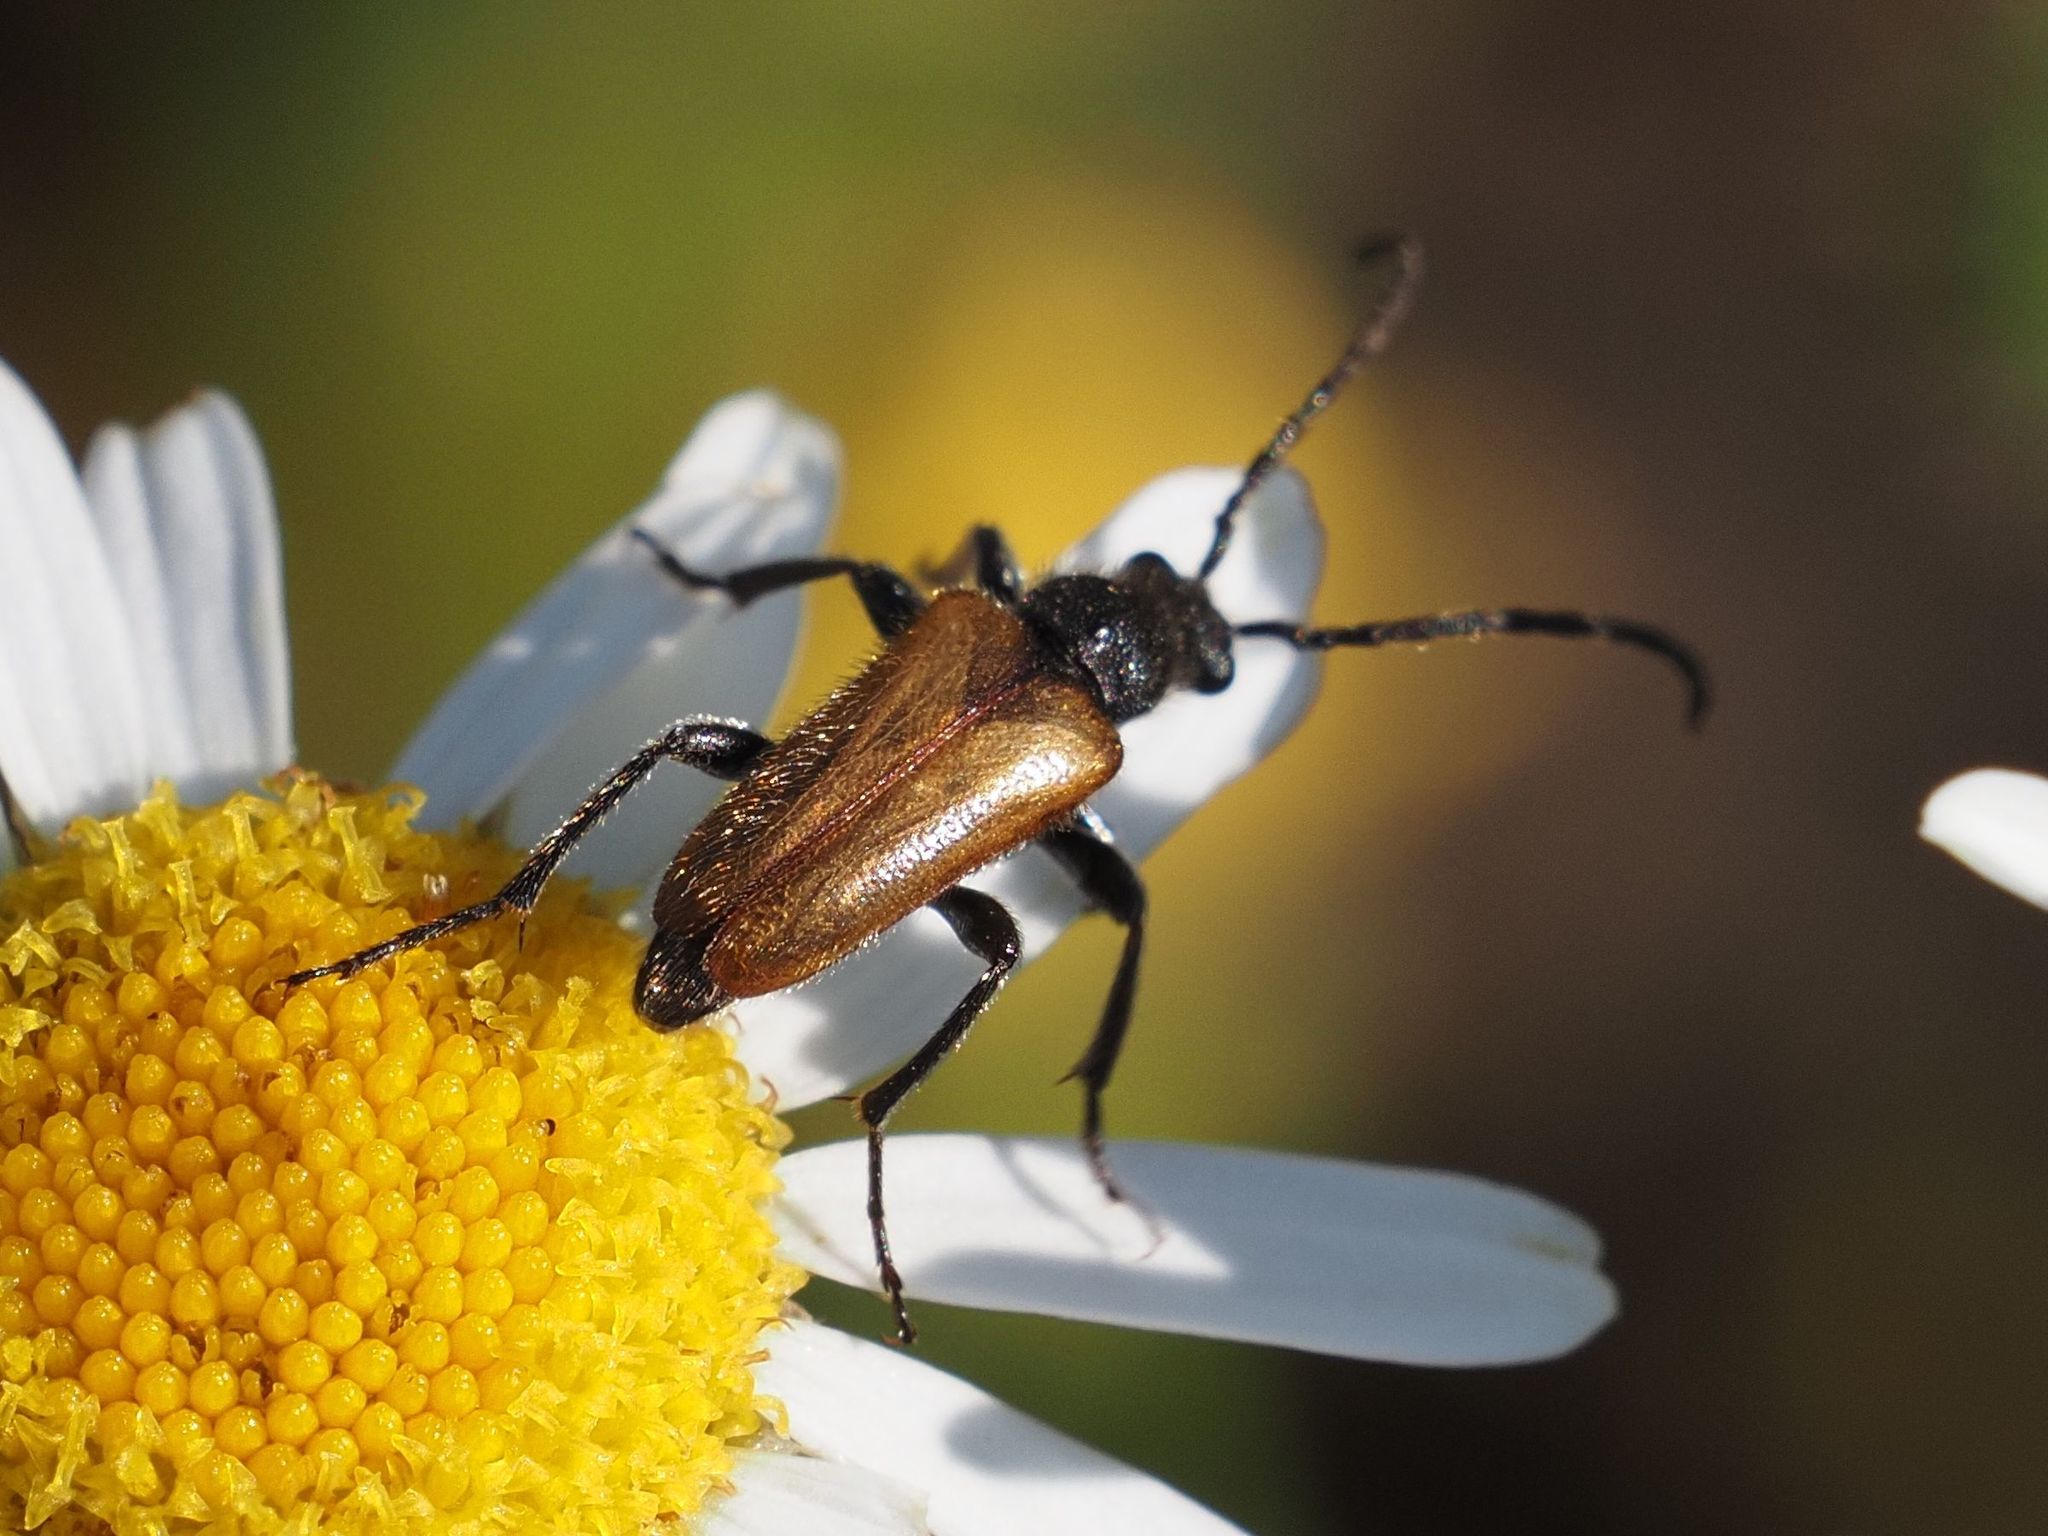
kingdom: Animalia
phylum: Arthropoda
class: Insecta
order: Coleoptera
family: Cerambycidae
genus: Pseudovadonia
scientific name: Pseudovadonia livida
